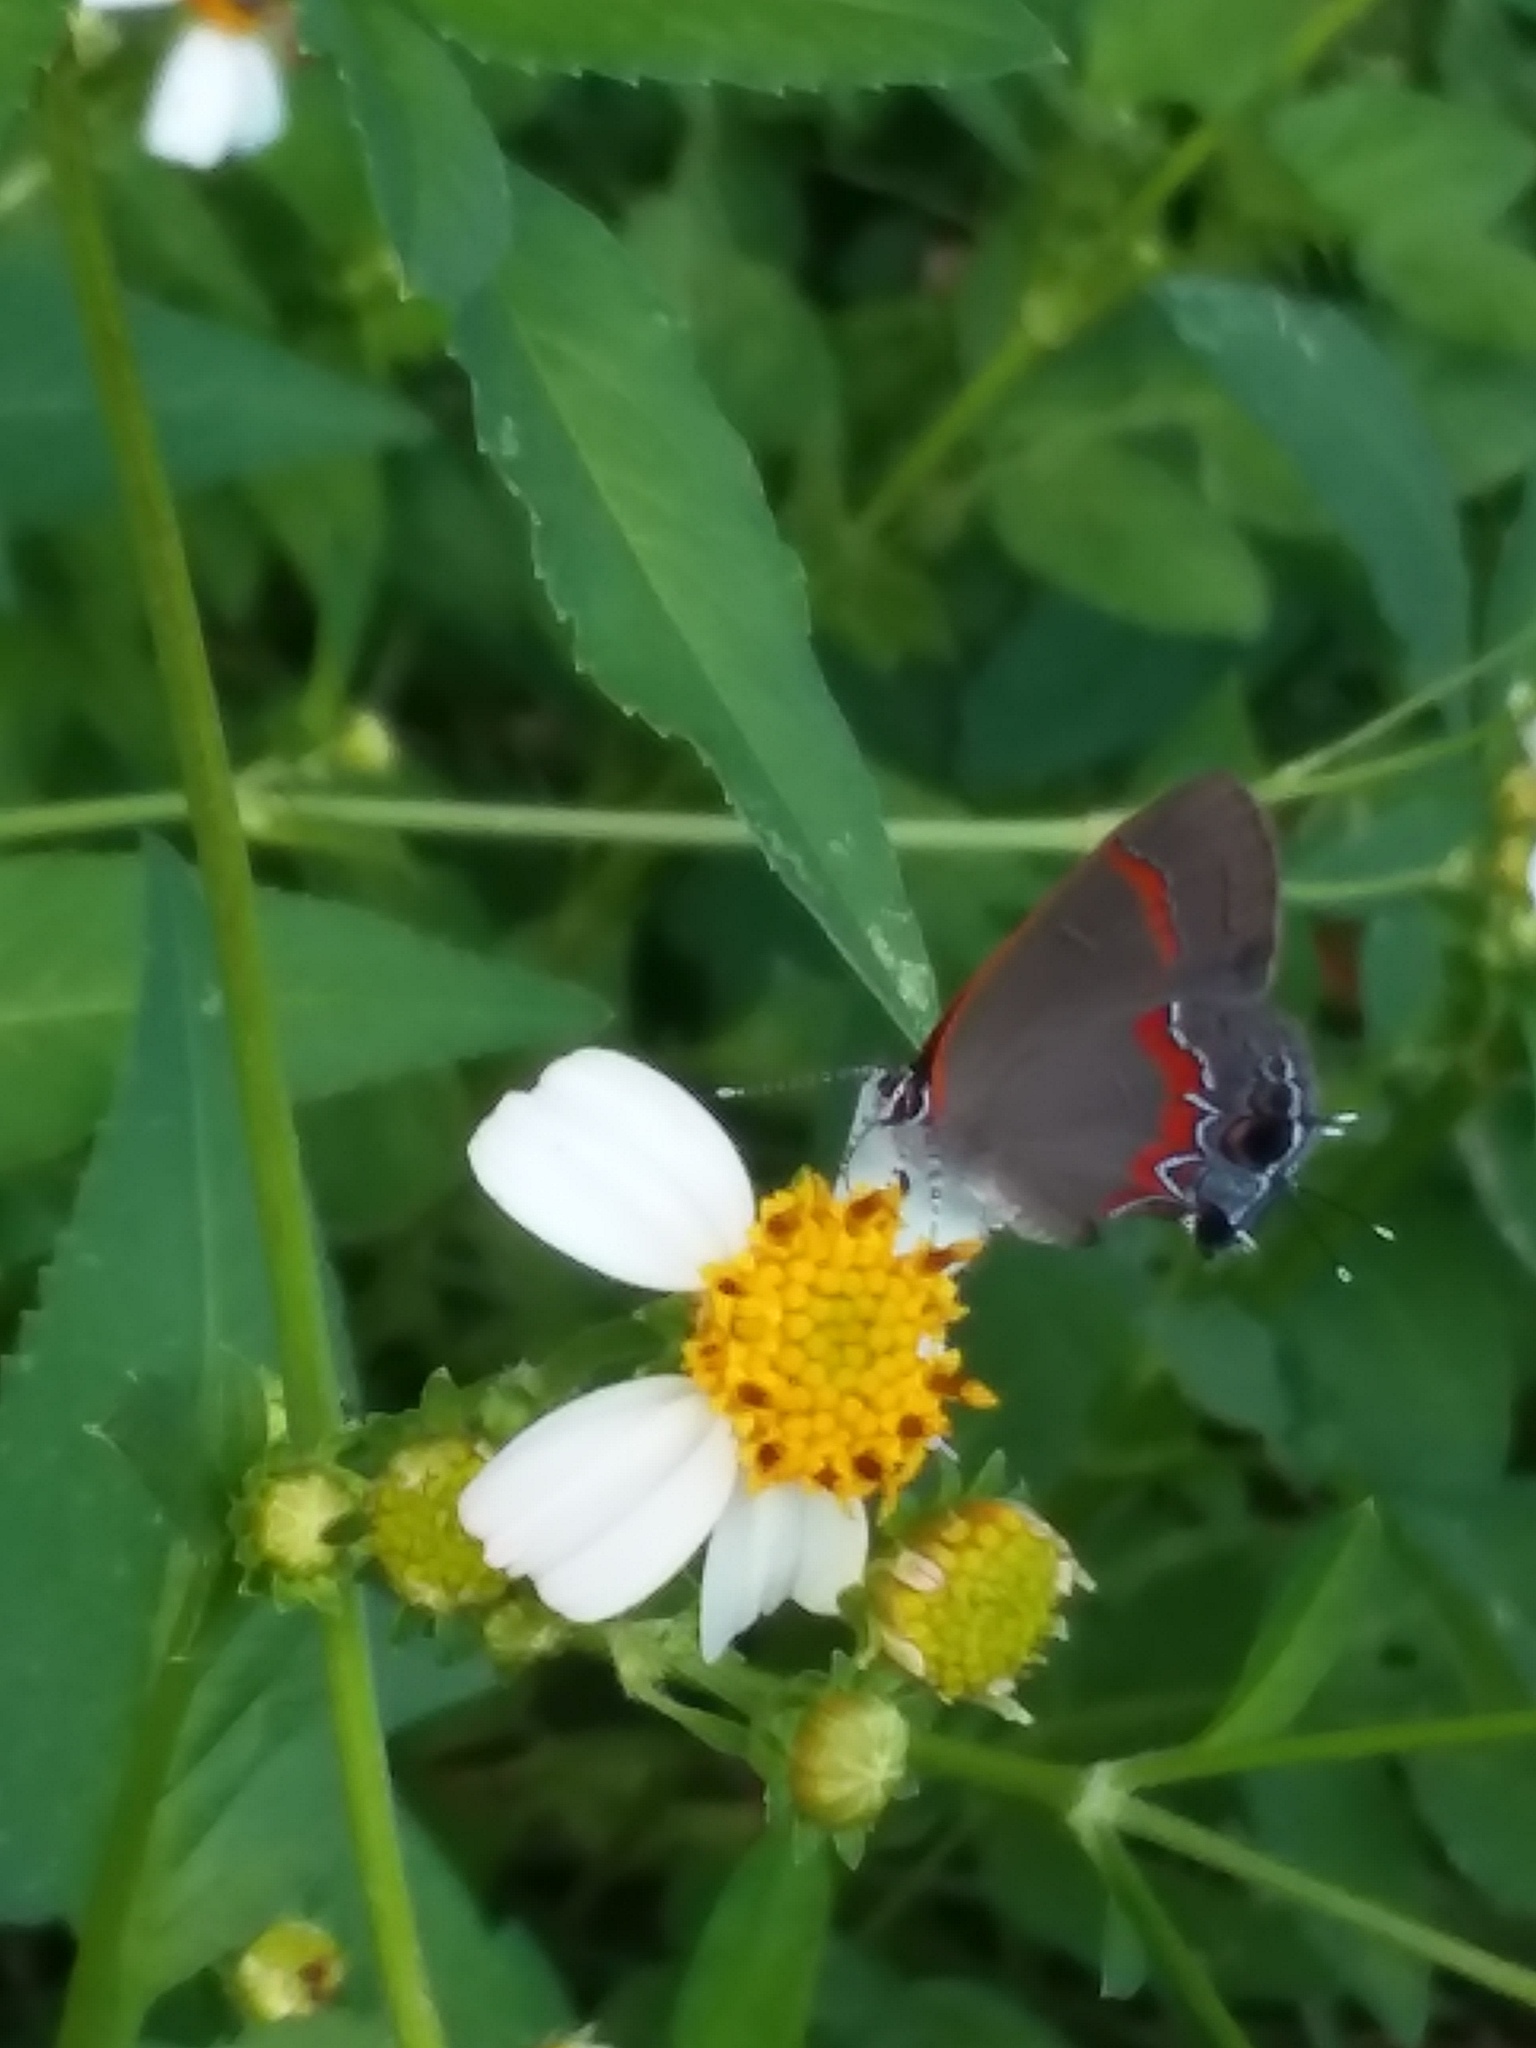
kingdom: Animalia
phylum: Arthropoda
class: Insecta
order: Lepidoptera
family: Lycaenidae
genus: Calycopis
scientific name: Calycopis cecrops
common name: Red-banded hairstreak
